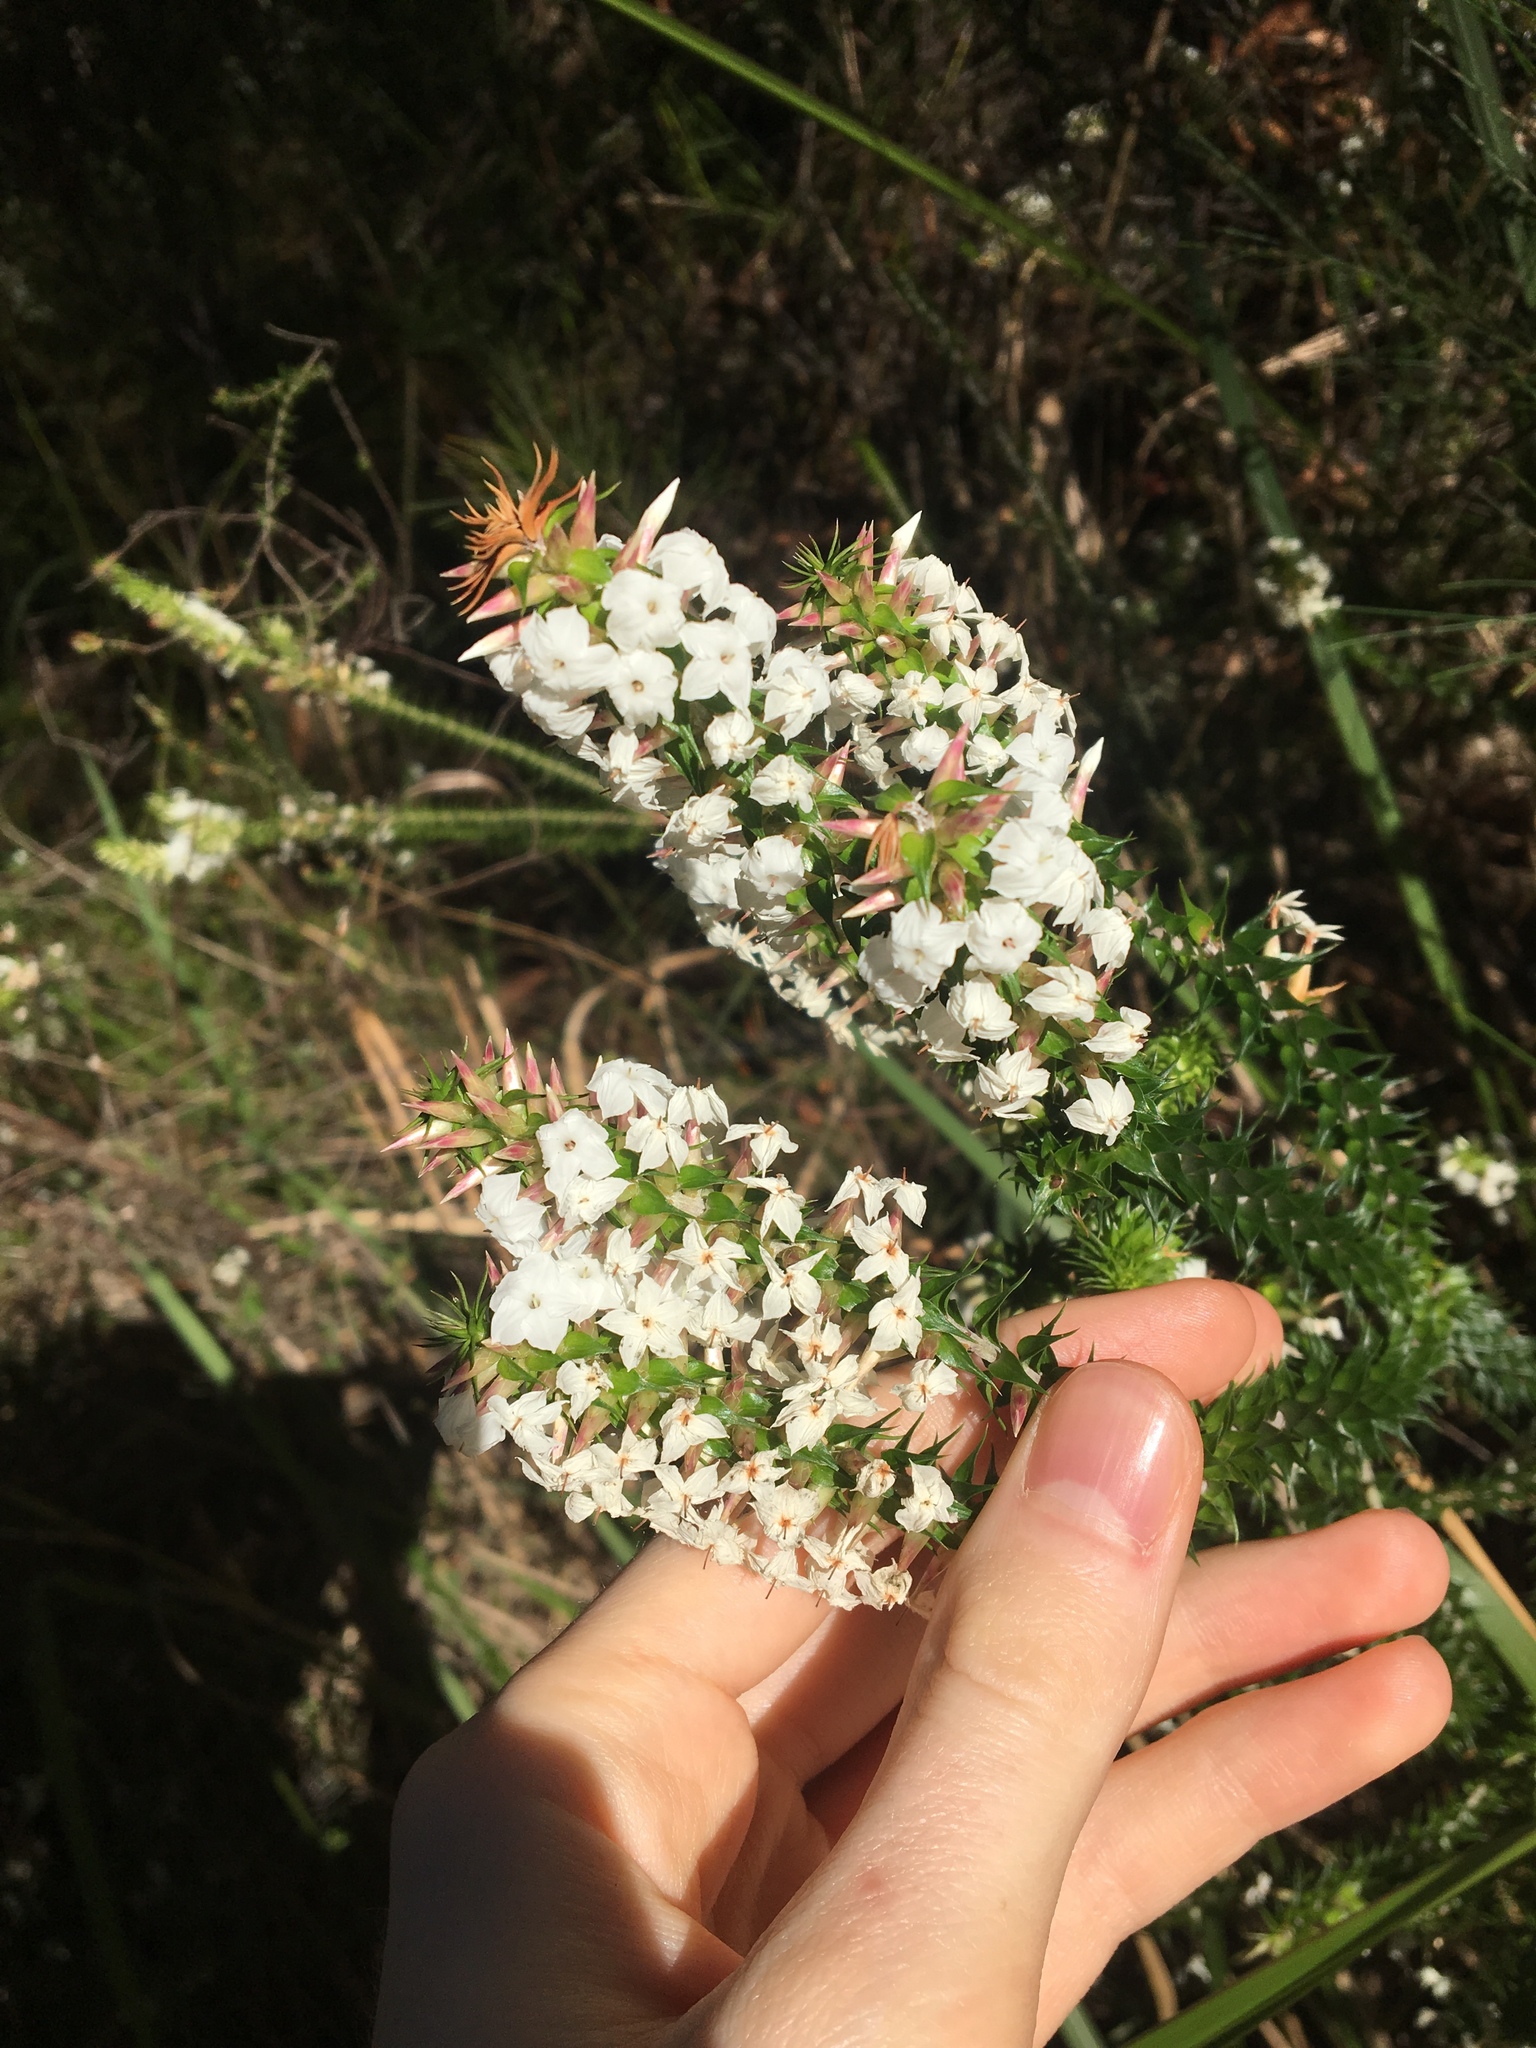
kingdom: Plantae
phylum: Tracheophyta
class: Magnoliopsida
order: Ericales
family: Ericaceae
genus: Woollsia
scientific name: Woollsia pungens
